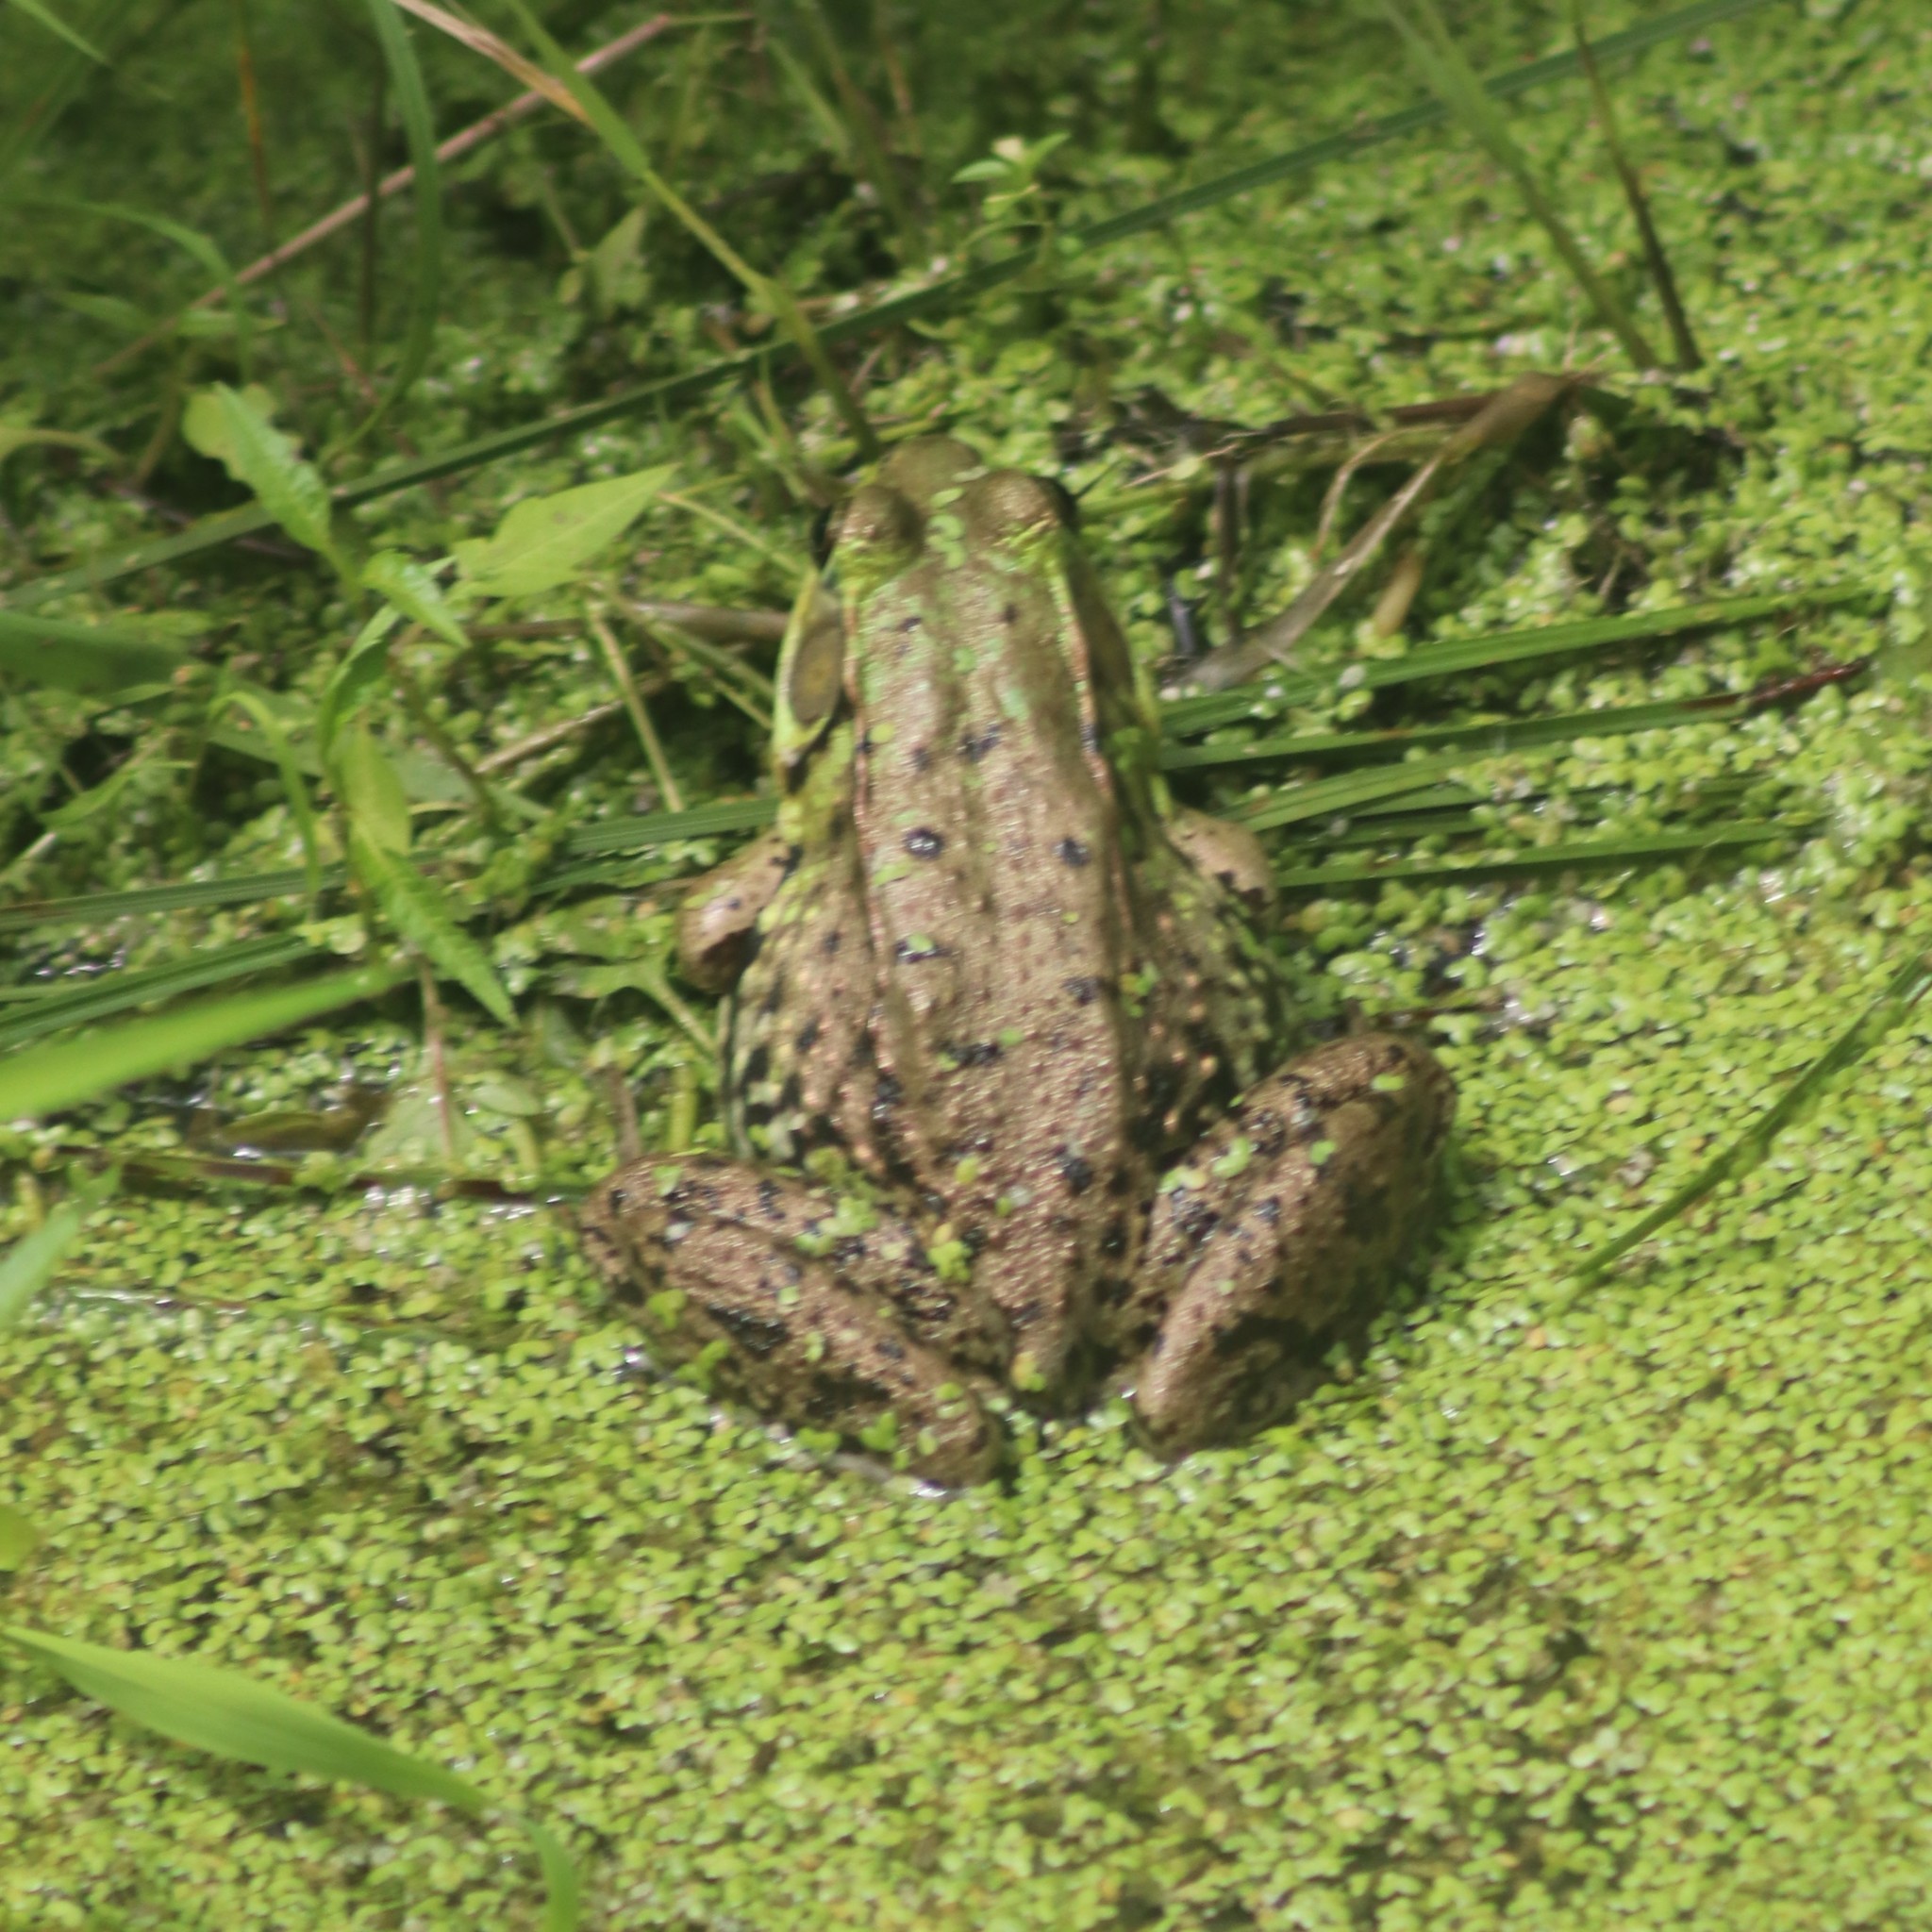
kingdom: Animalia
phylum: Chordata
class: Amphibia
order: Anura
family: Ranidae
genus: Lithobates
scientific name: Lithobates clamitans
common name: Green frog
